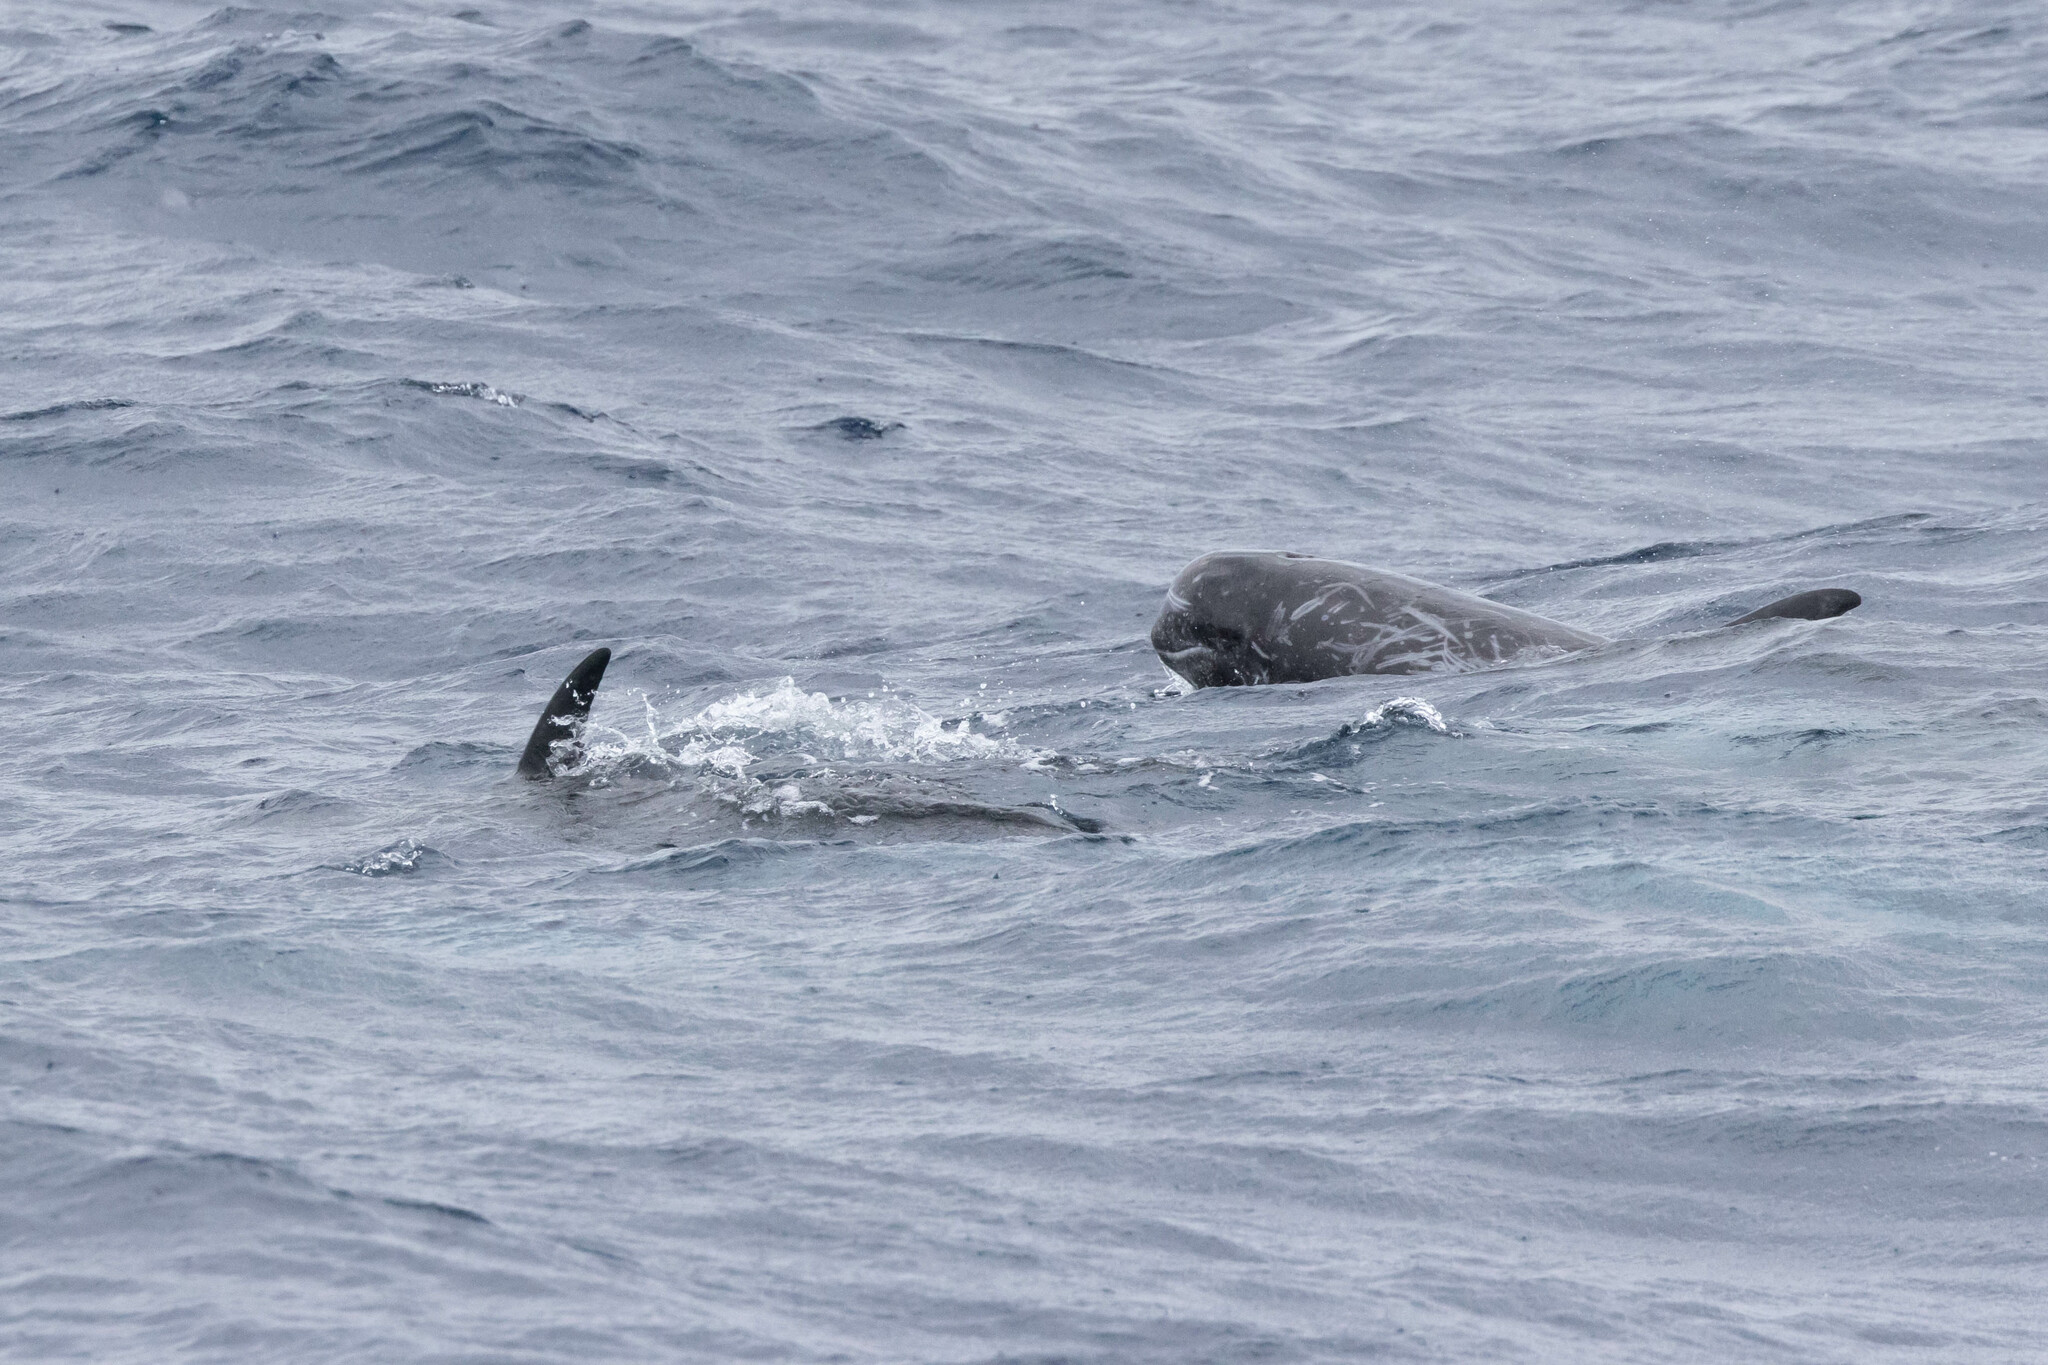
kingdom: Animalia
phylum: Chordata
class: Mammalia
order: Cetacea
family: Delphinidae
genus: Grampus
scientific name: Grampus griseus
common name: Risso's dolphin
